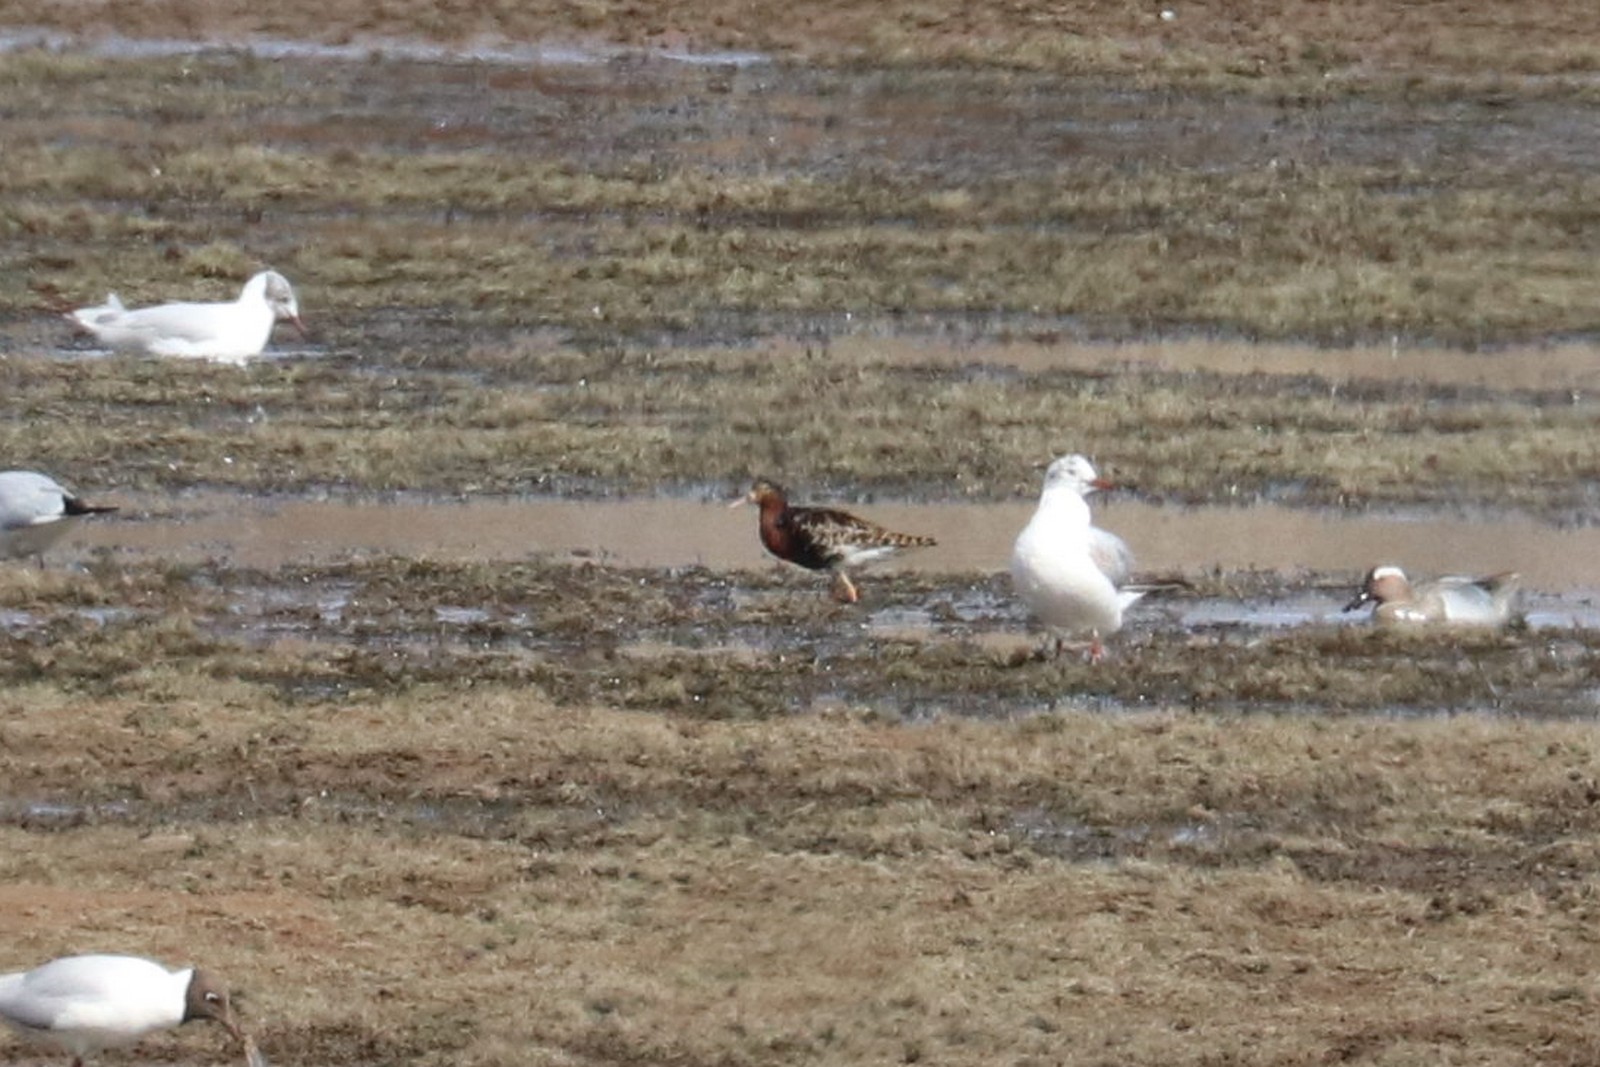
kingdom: Animalia
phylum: Chordata
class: Aves
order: Charadriiformes
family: Scolopacidae
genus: Calidris
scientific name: Calidris pugnax
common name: Ruff
